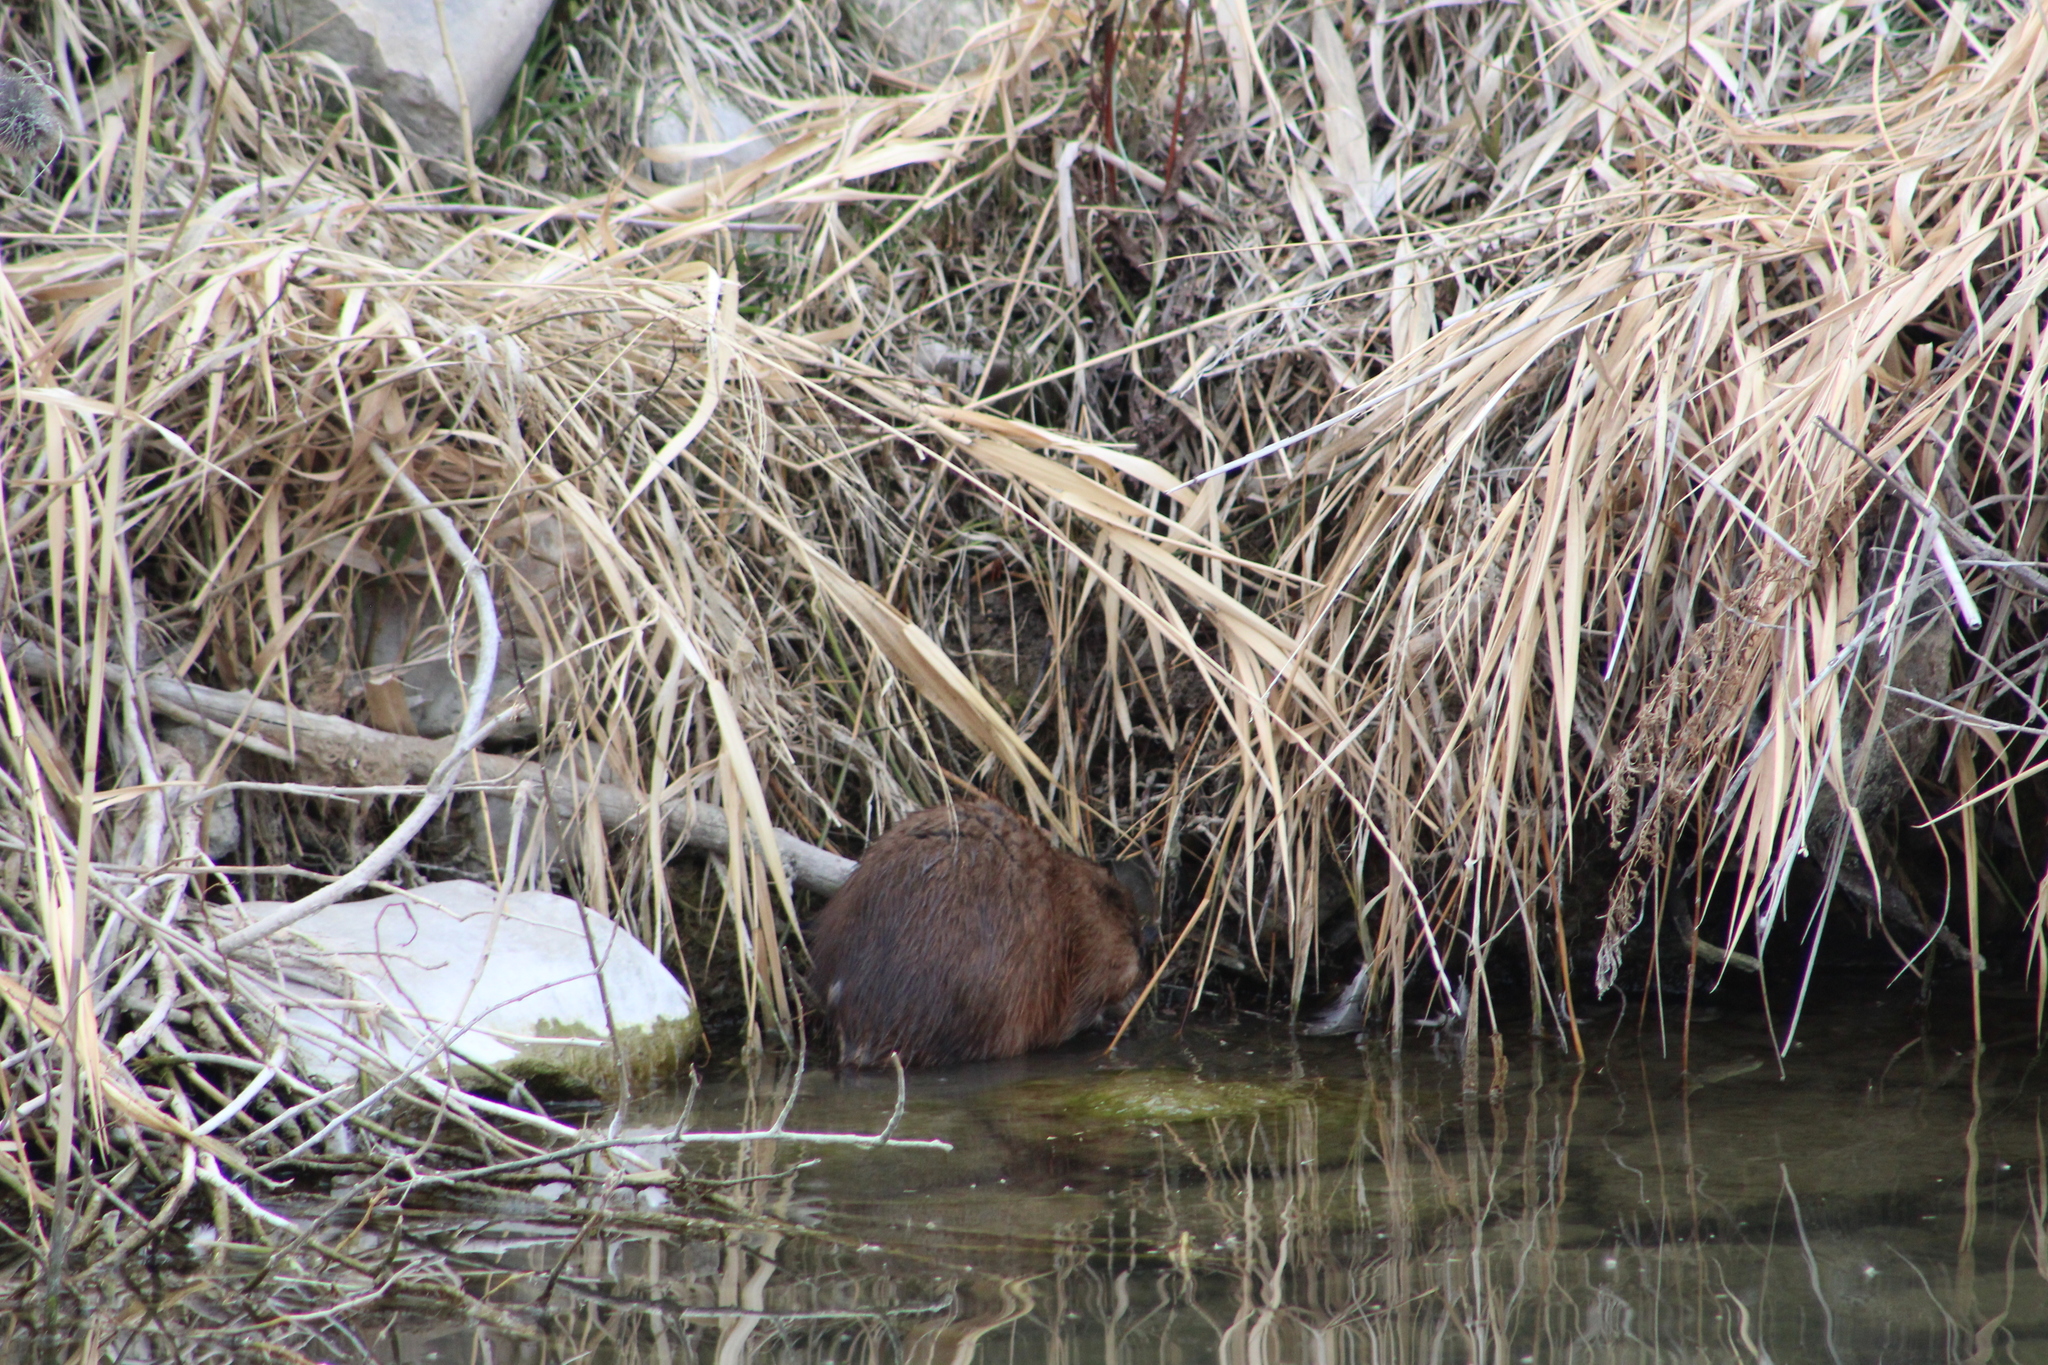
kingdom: Animalia
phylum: Chordata
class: Mammalia
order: Rodentia
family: Cricetidae
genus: Ondatra
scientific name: Ondatra zibethicus
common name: Muskrat
